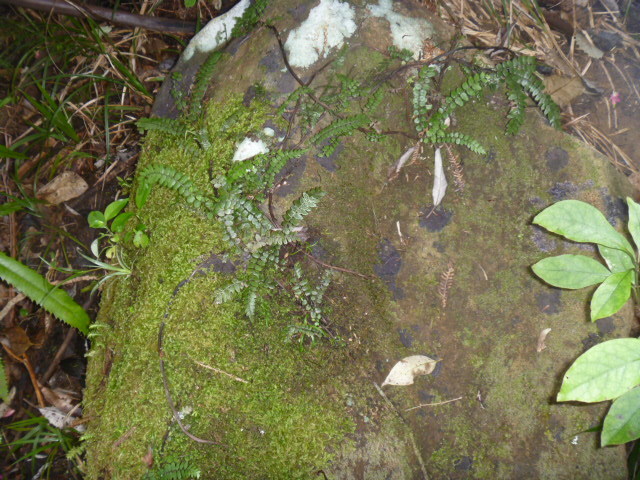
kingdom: Plantae
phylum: Tracheophyta
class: Polypodiopsida
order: Polypodiales
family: Blechnaceae
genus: Icarus
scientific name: Icarus filiformis
